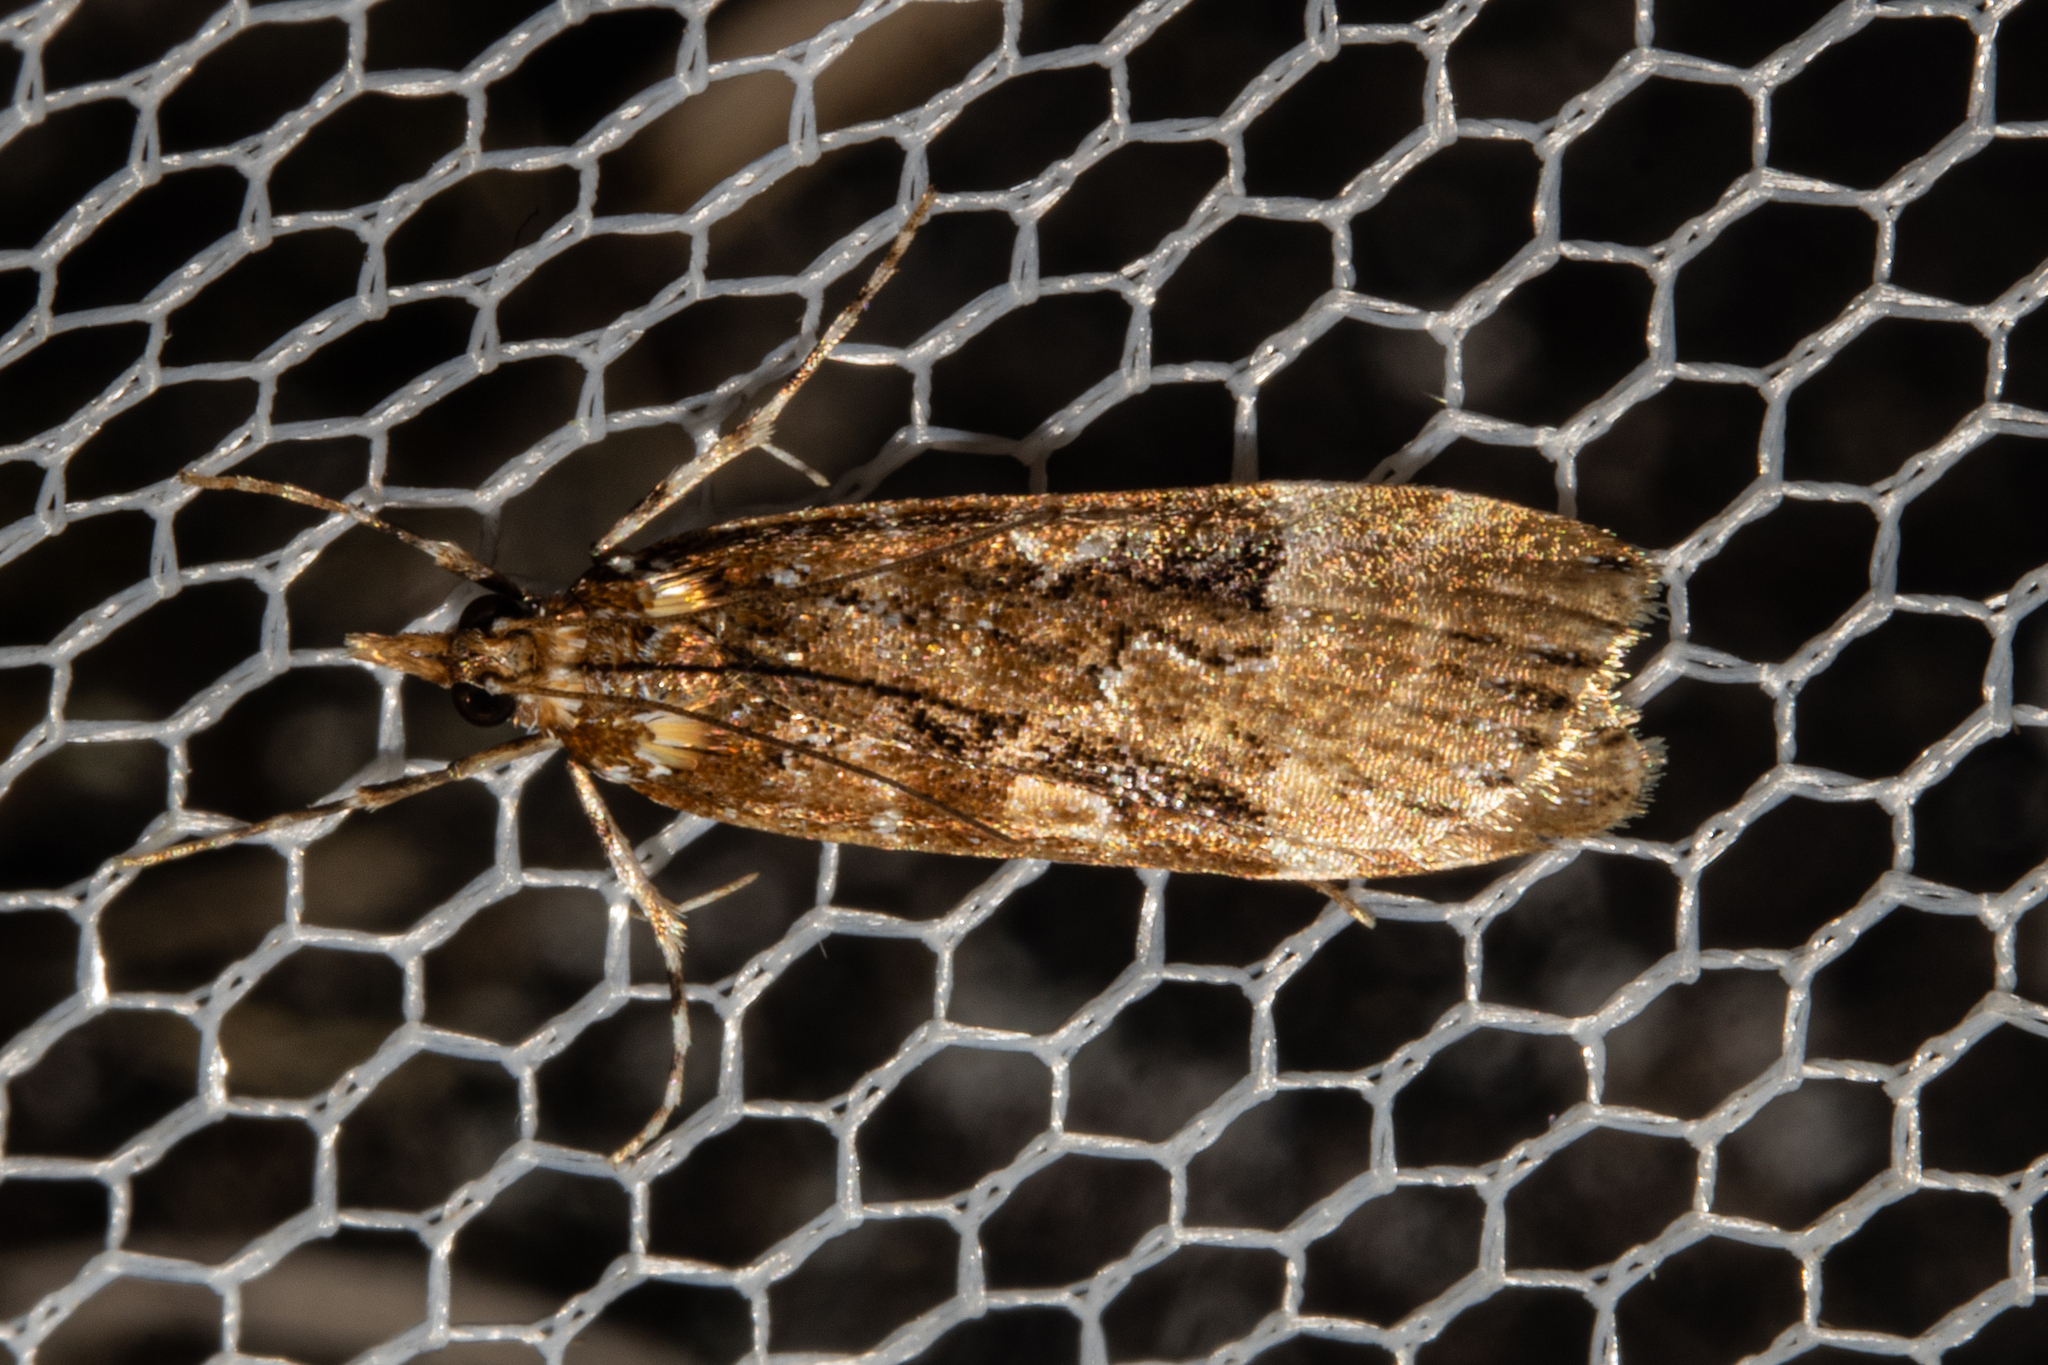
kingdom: Animalia
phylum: Arthropoda
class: Insecta
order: Lepidoptera
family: Crambidae
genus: Scoparia
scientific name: Scoparia ustimacula
